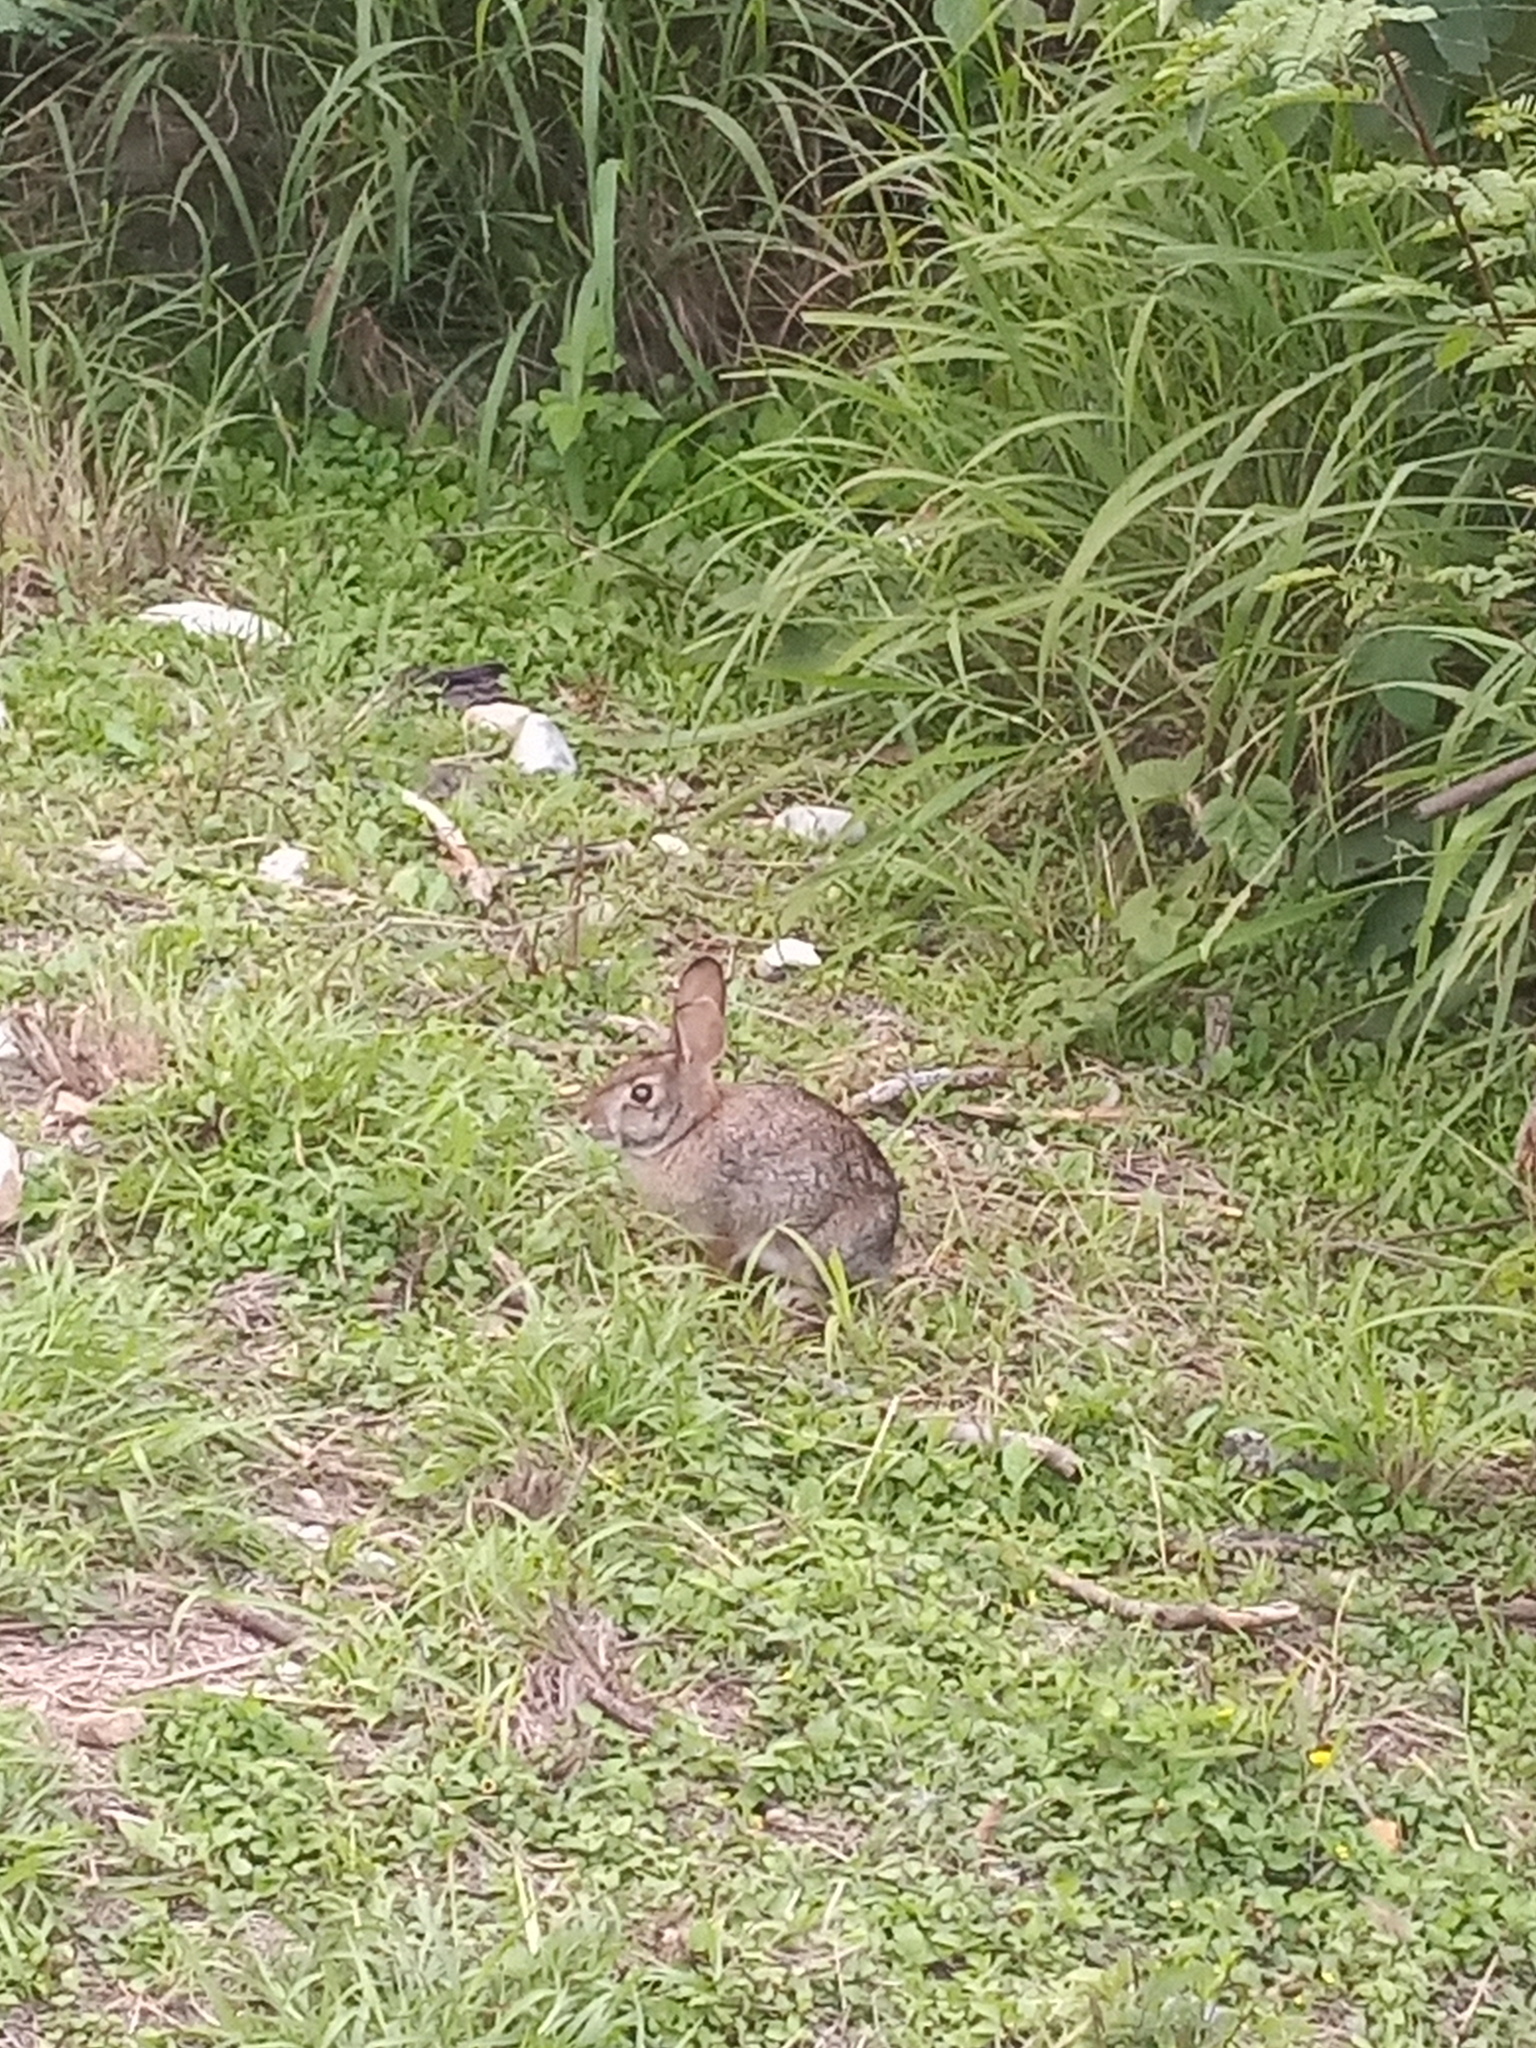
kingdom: Animalia
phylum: Chordata
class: Mammalia
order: Lagomorpha
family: Leporidae
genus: Sylvilagus
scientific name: Sylvilagus floridanus
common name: Eastern cottontail
